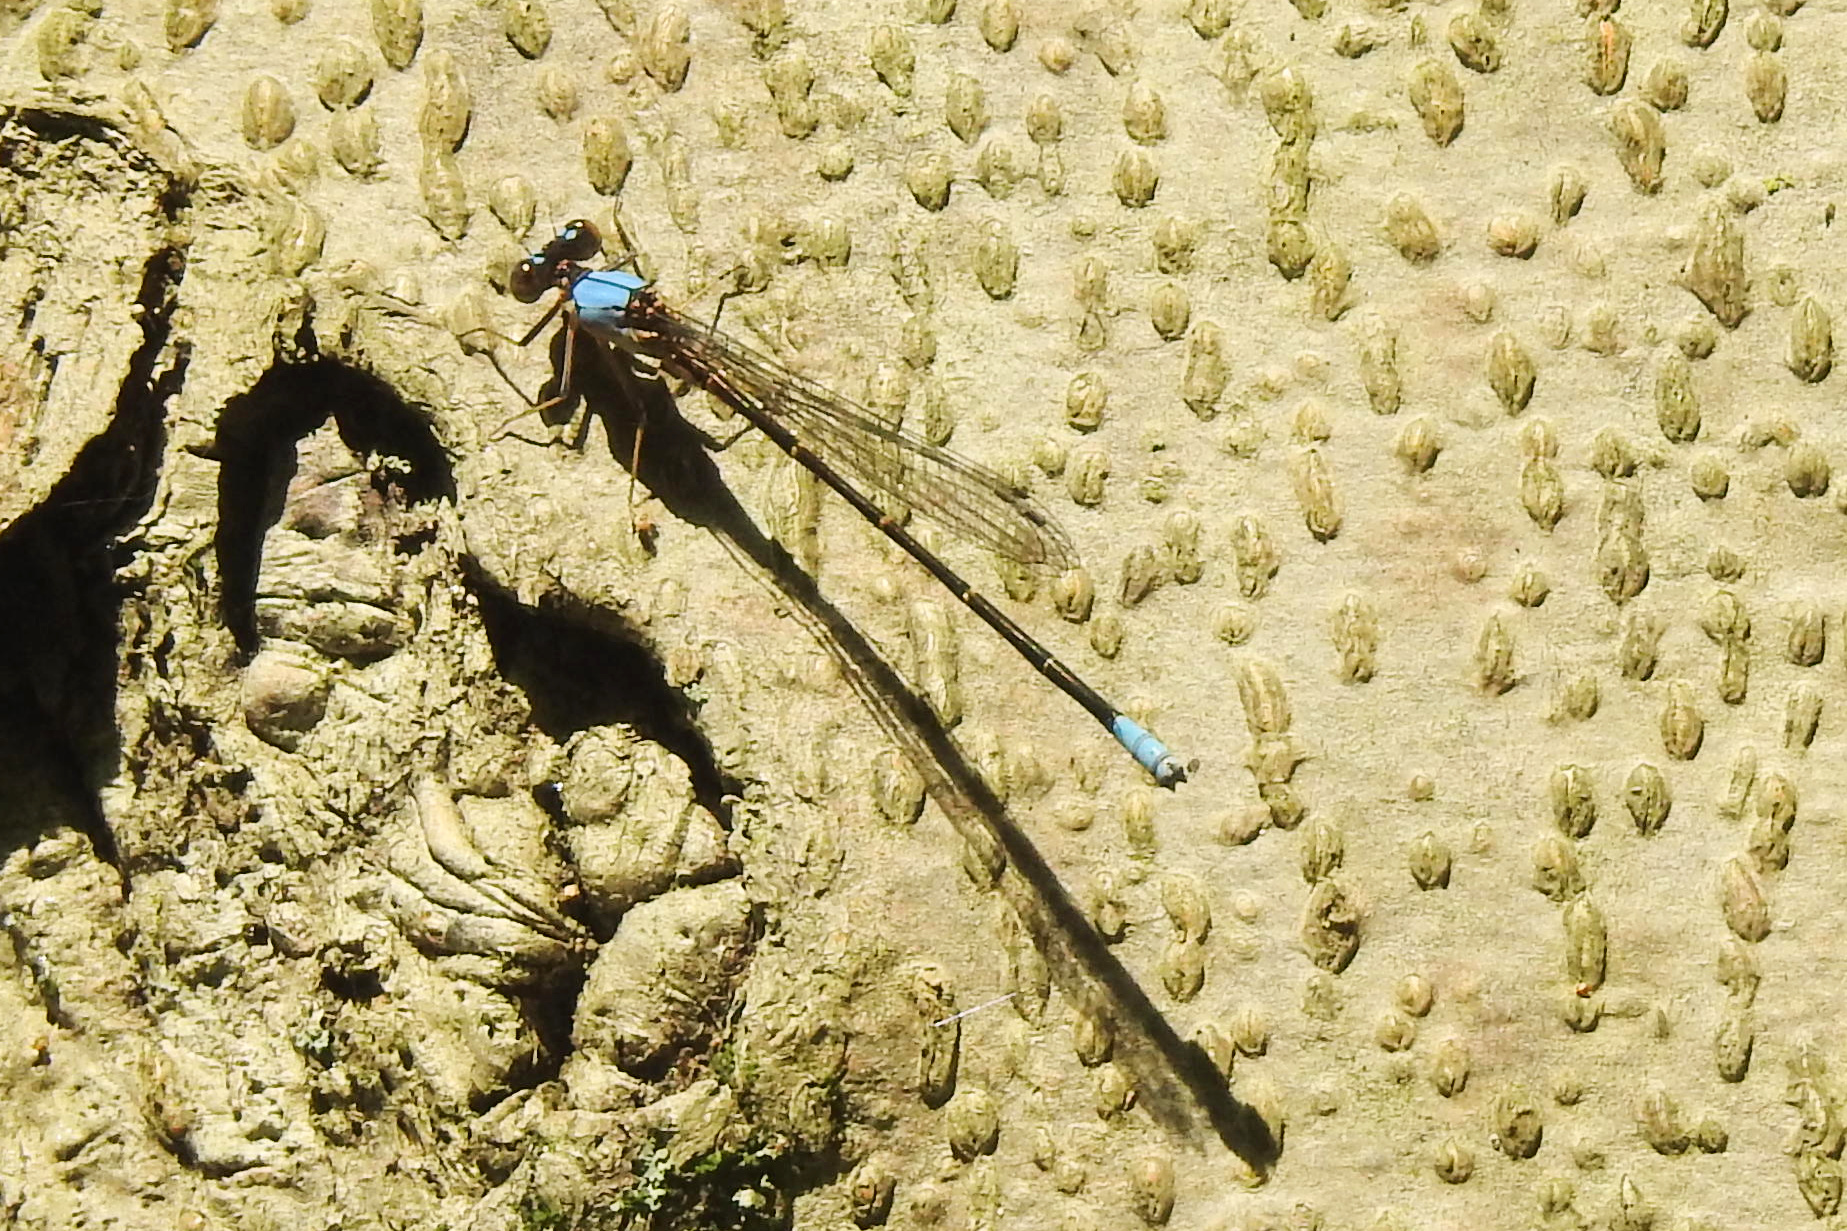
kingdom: Animalia
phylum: Arthropoda
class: Insecta
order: Odonata
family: Coenagrionidae
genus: Argia
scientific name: Argia apicalis
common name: Blue-fronted dancer
